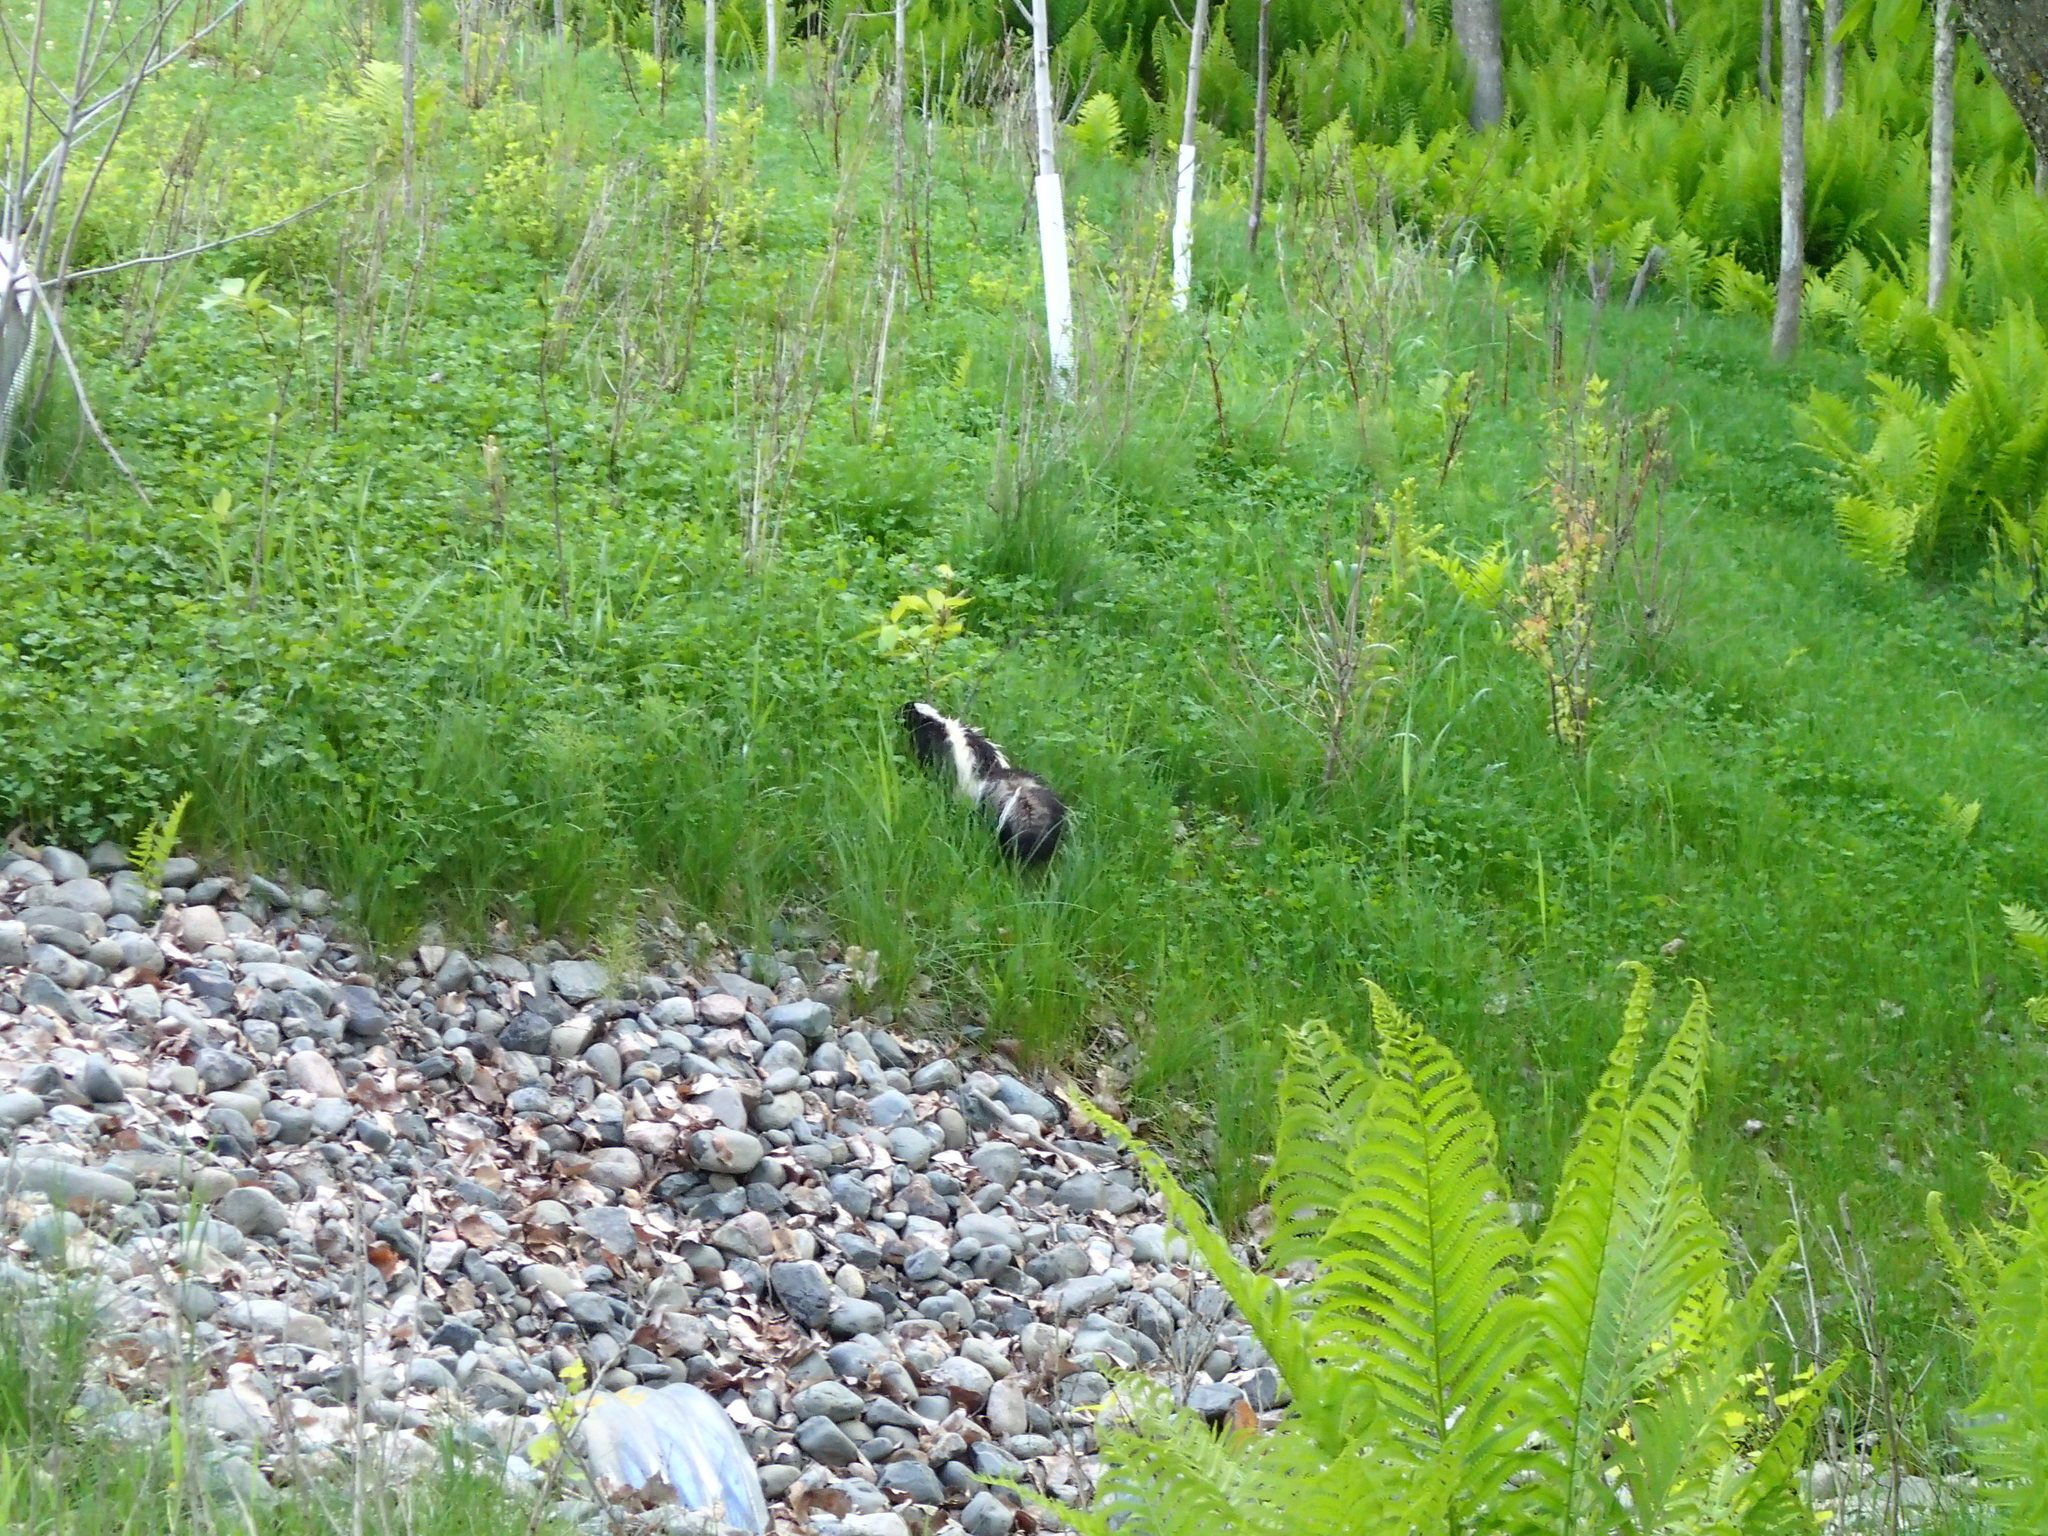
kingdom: Animalia
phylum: Chordata
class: Mammalia
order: Carnivora
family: Mephitidae
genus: Mephitis
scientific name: Mephitis mephitis
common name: Striped skunk
